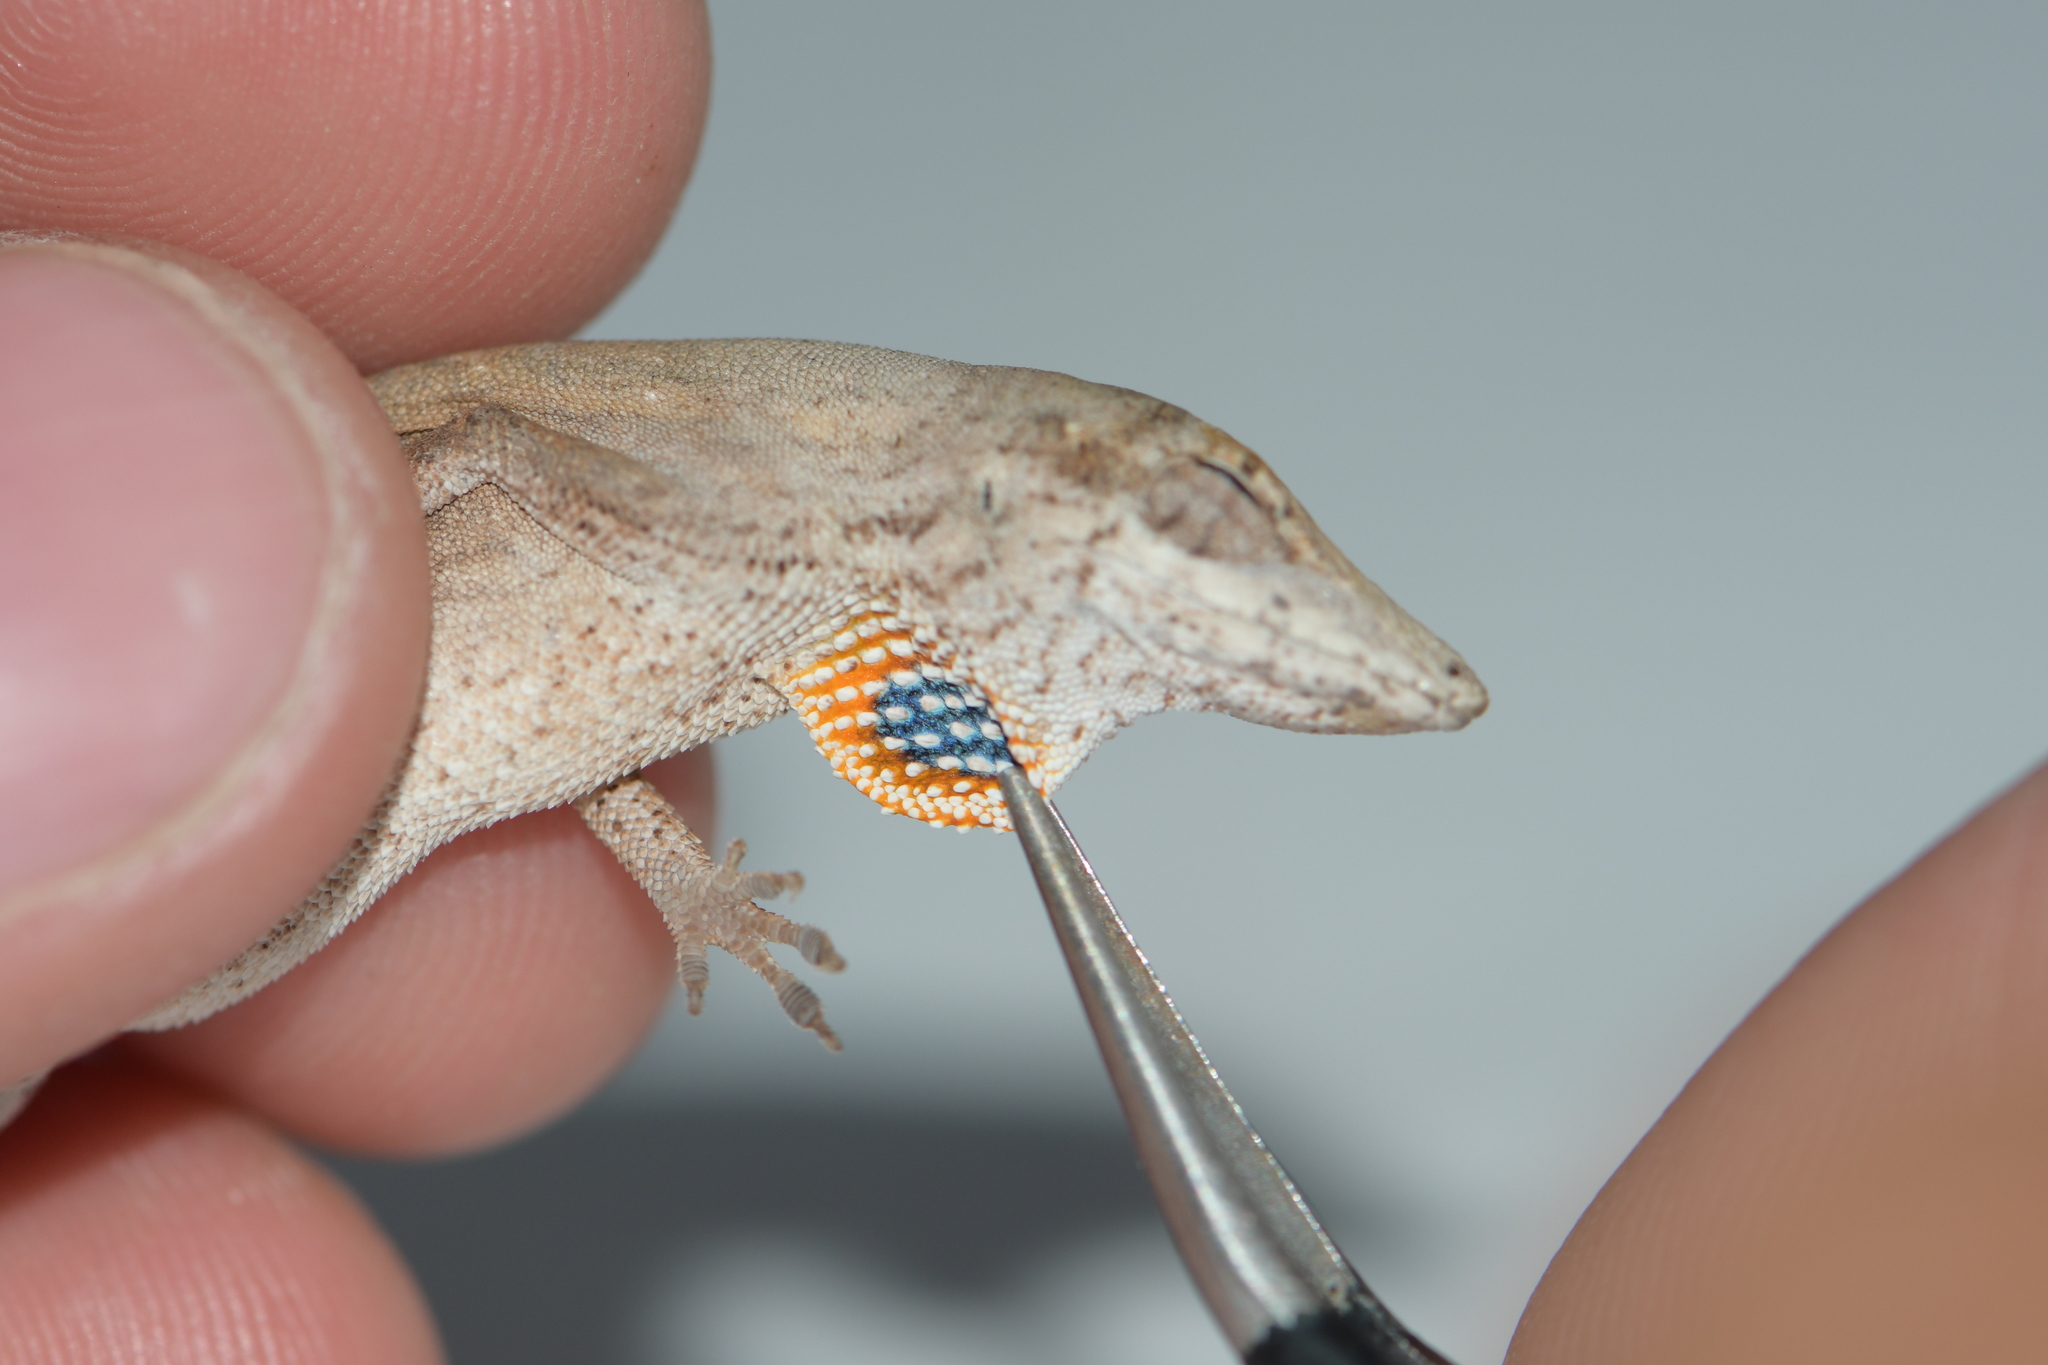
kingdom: Animalia
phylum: Chordata
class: Squamata
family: Dactyloidae
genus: Anolis
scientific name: Anolis unilobatus
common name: Blue-spotted fan anole
